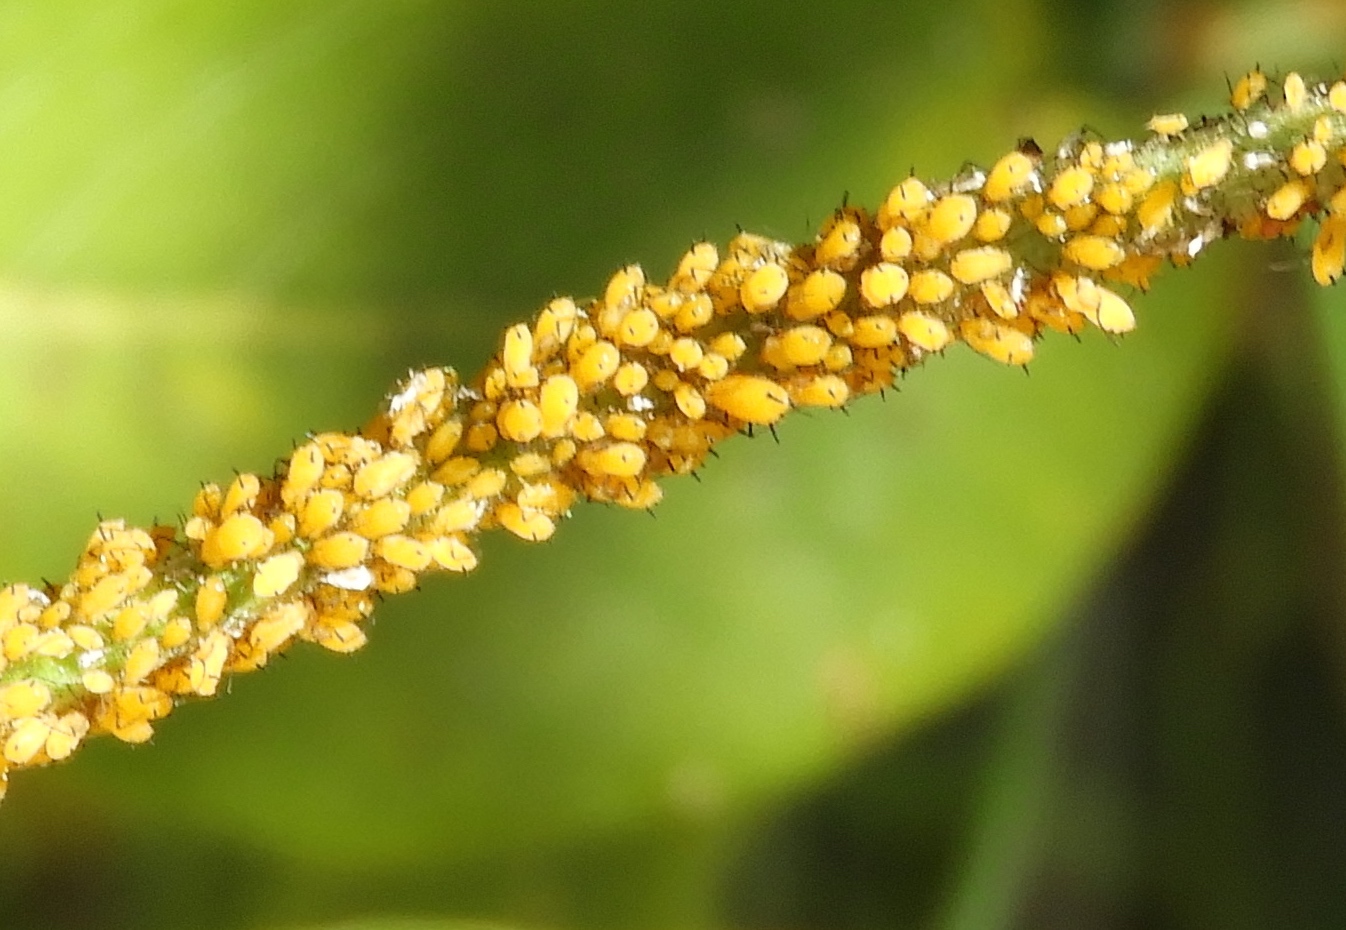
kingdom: Animalia
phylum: Arthropoda
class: Insecta
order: Hemiptera
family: Aphididae
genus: Aphis
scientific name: Aphis nerii
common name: Oleander aphid
